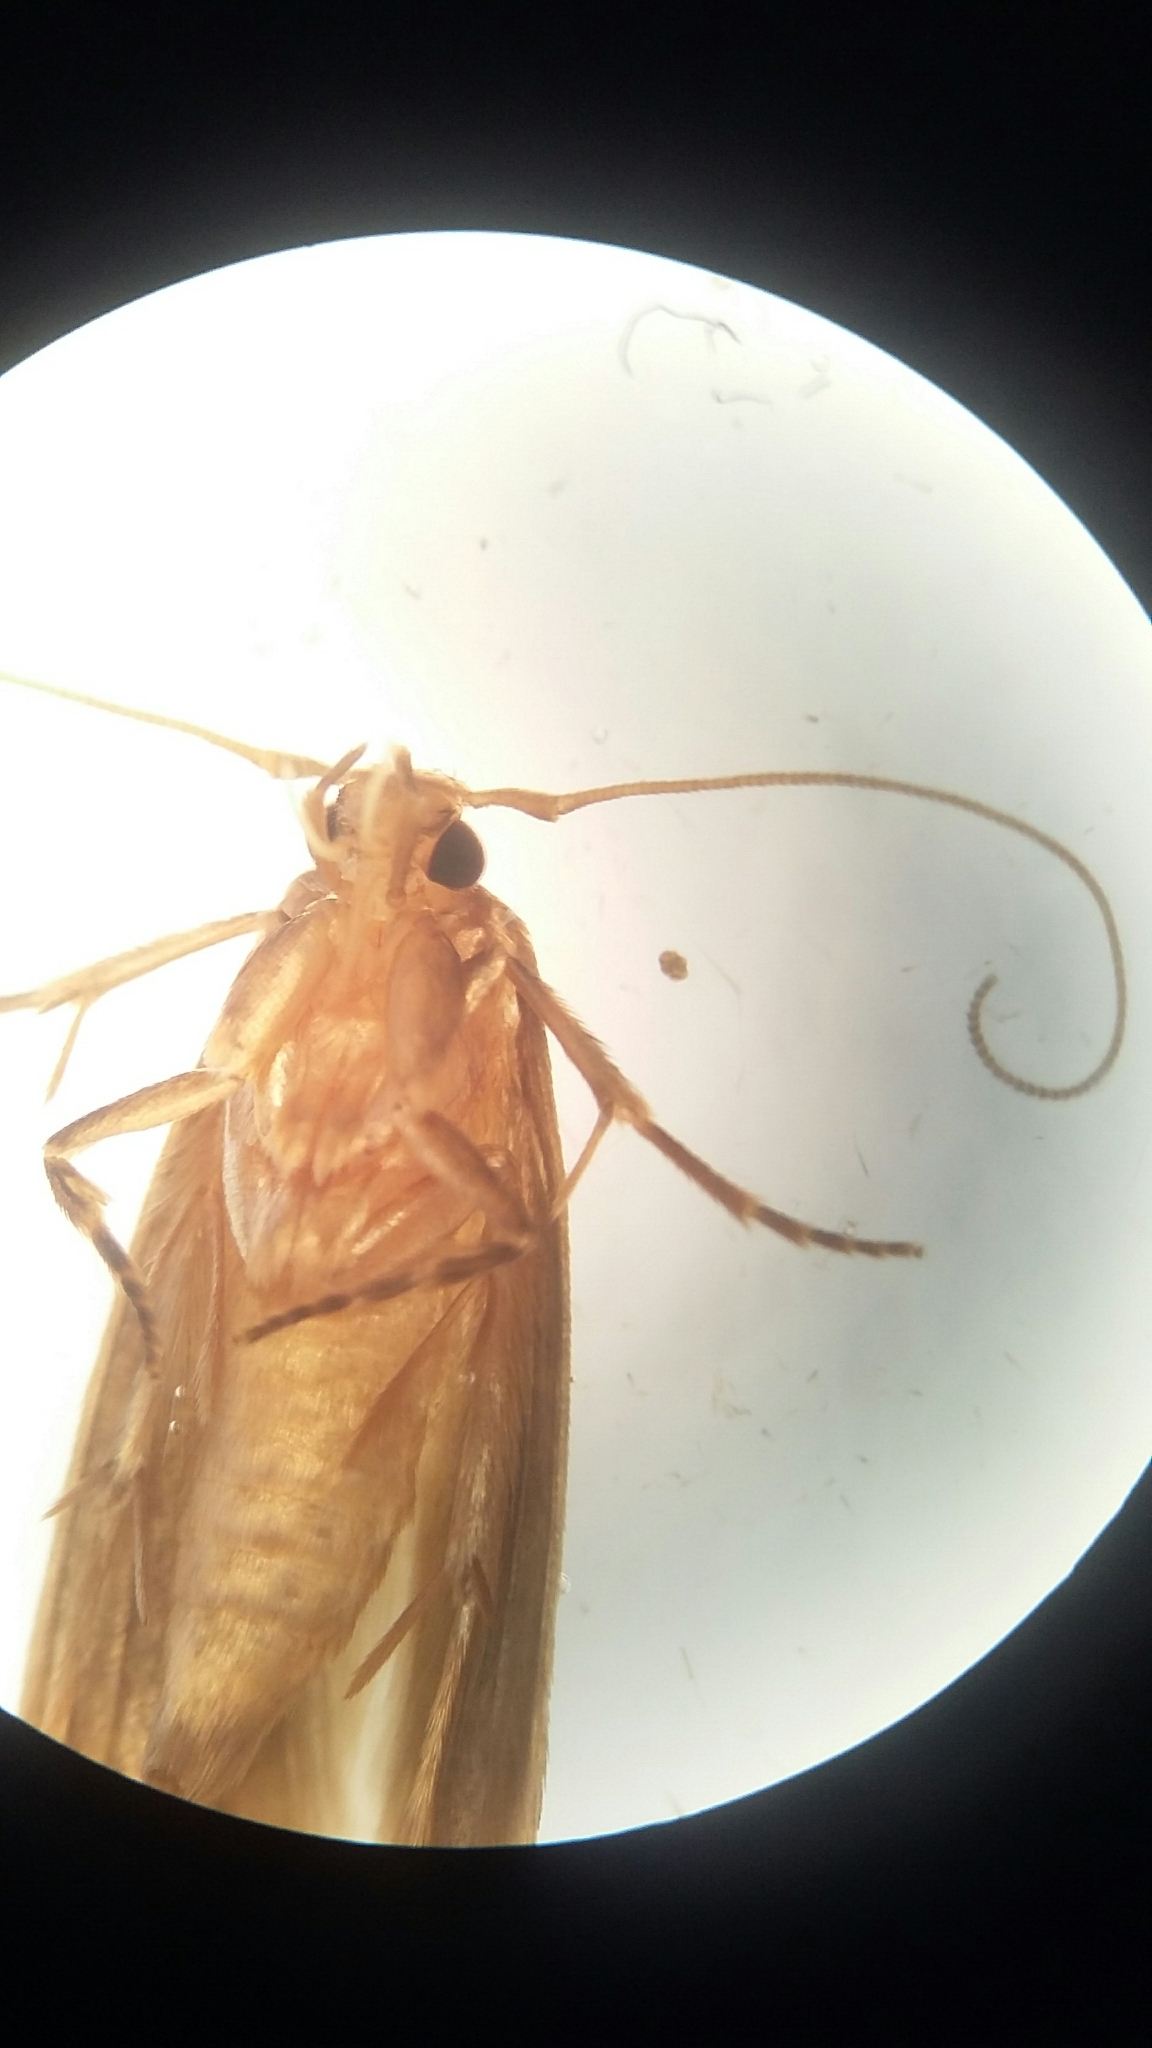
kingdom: Animalia
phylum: Arthropoda
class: Insecta
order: Lepidoptera
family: Tineidae
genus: Opogona
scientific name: Opogona omoscopa
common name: Moth
